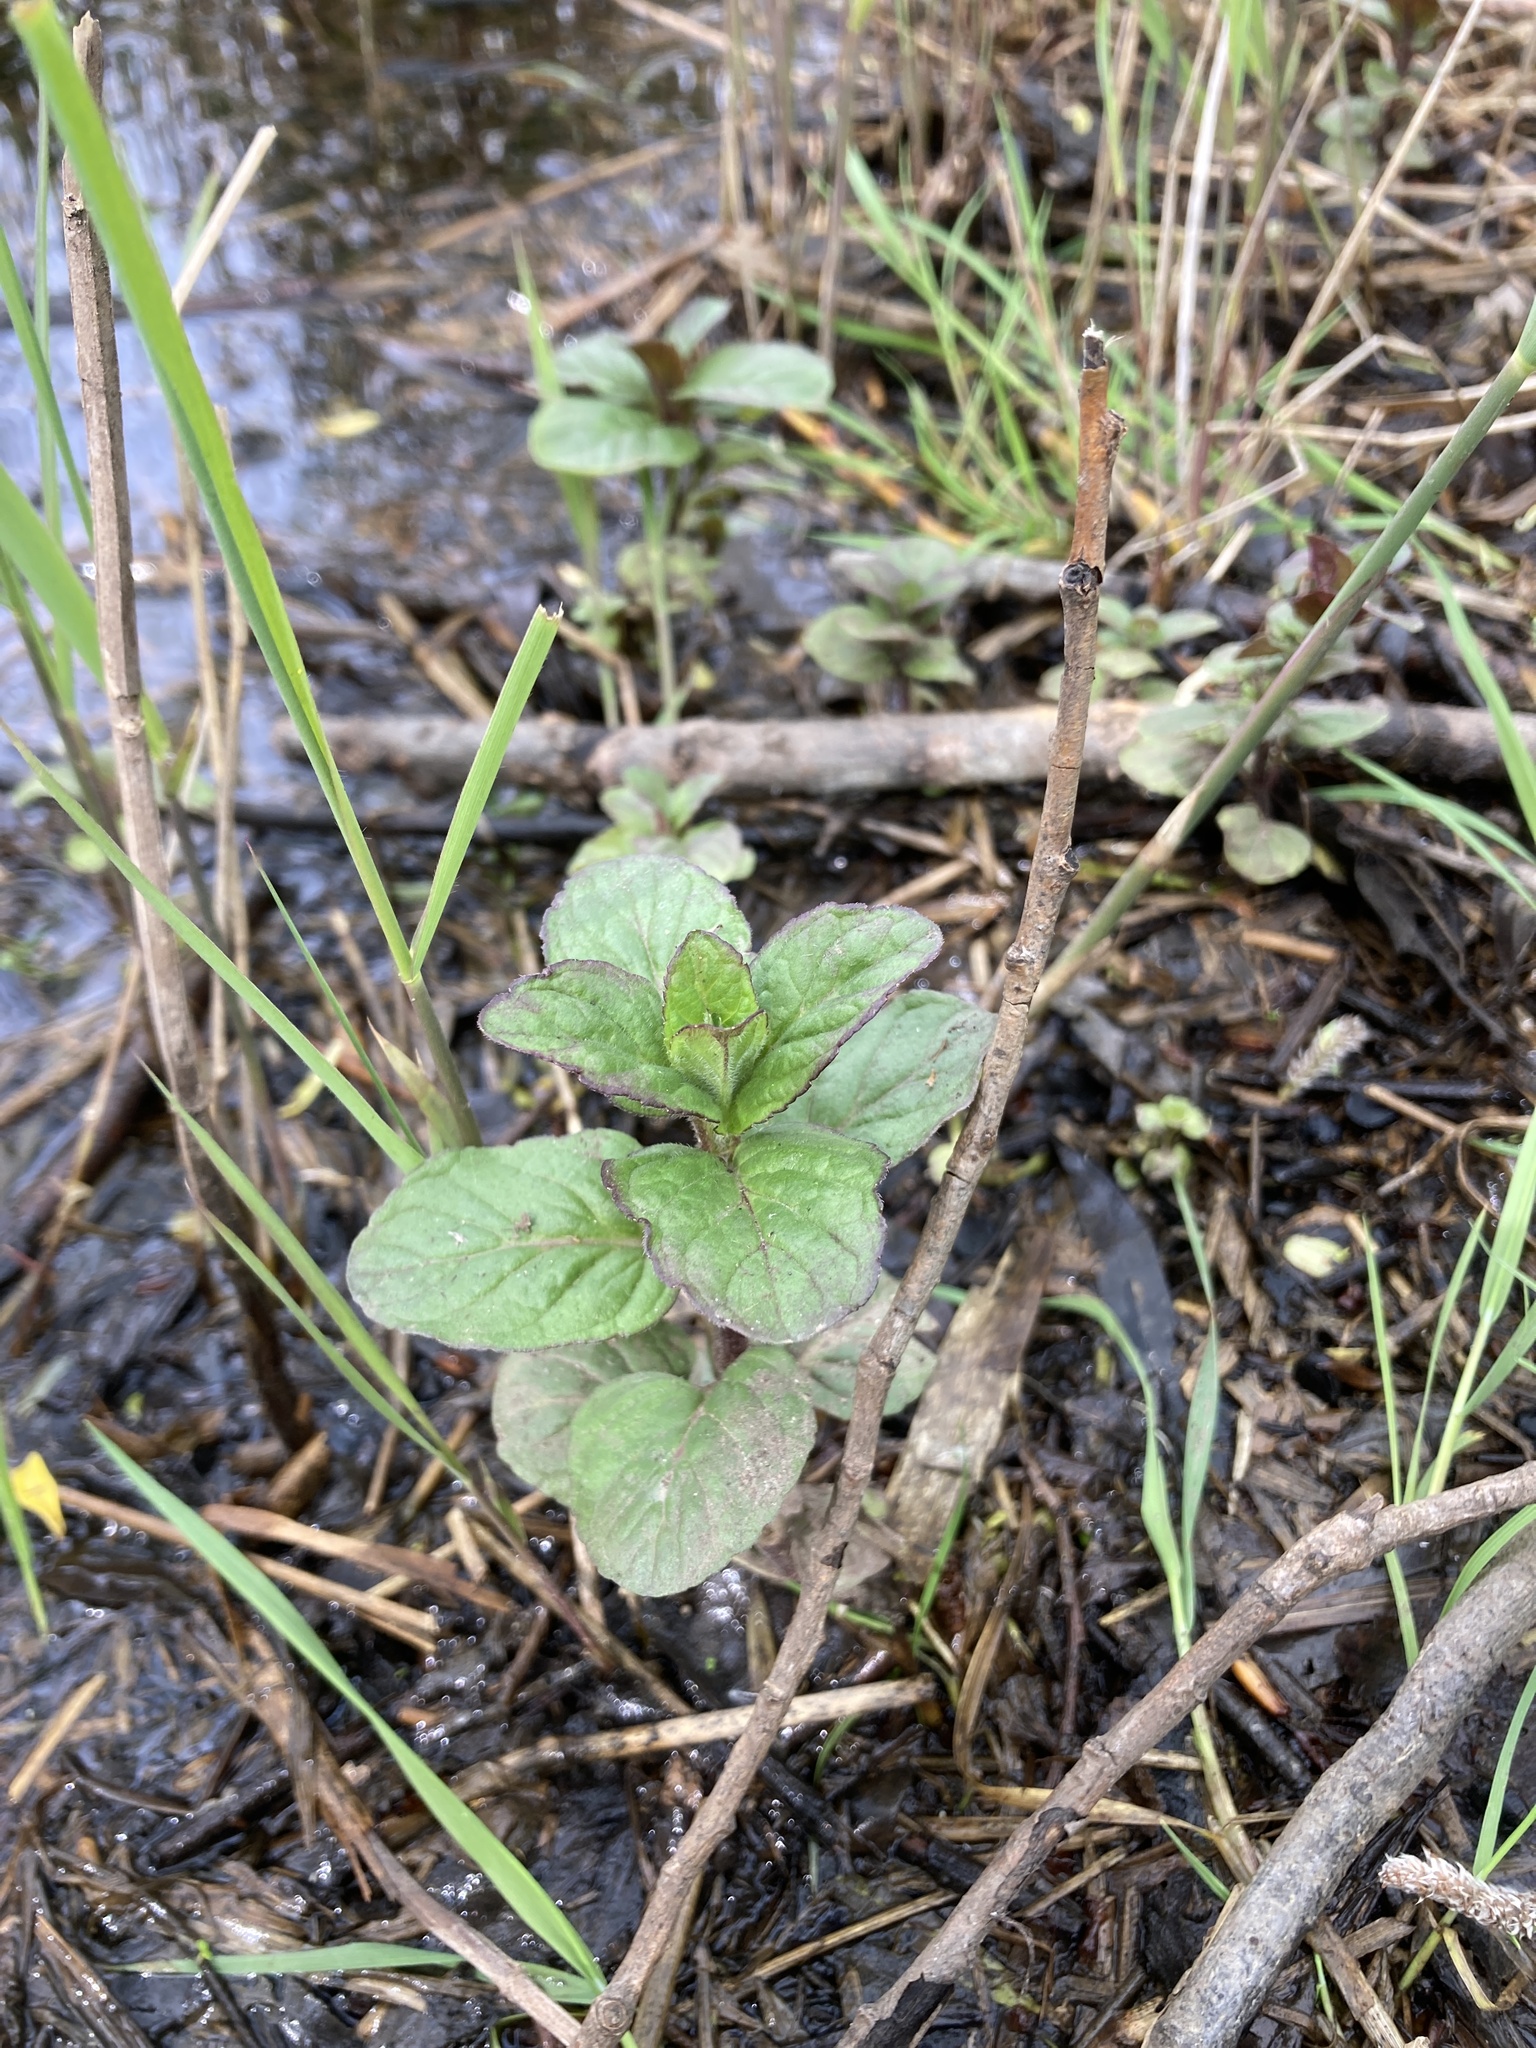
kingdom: Plantae
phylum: Tracheophyta
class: Magnoliopsida
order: Lamiales
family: Lamiaceae
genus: Mentha
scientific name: Mentha aquatica
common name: Water mint
